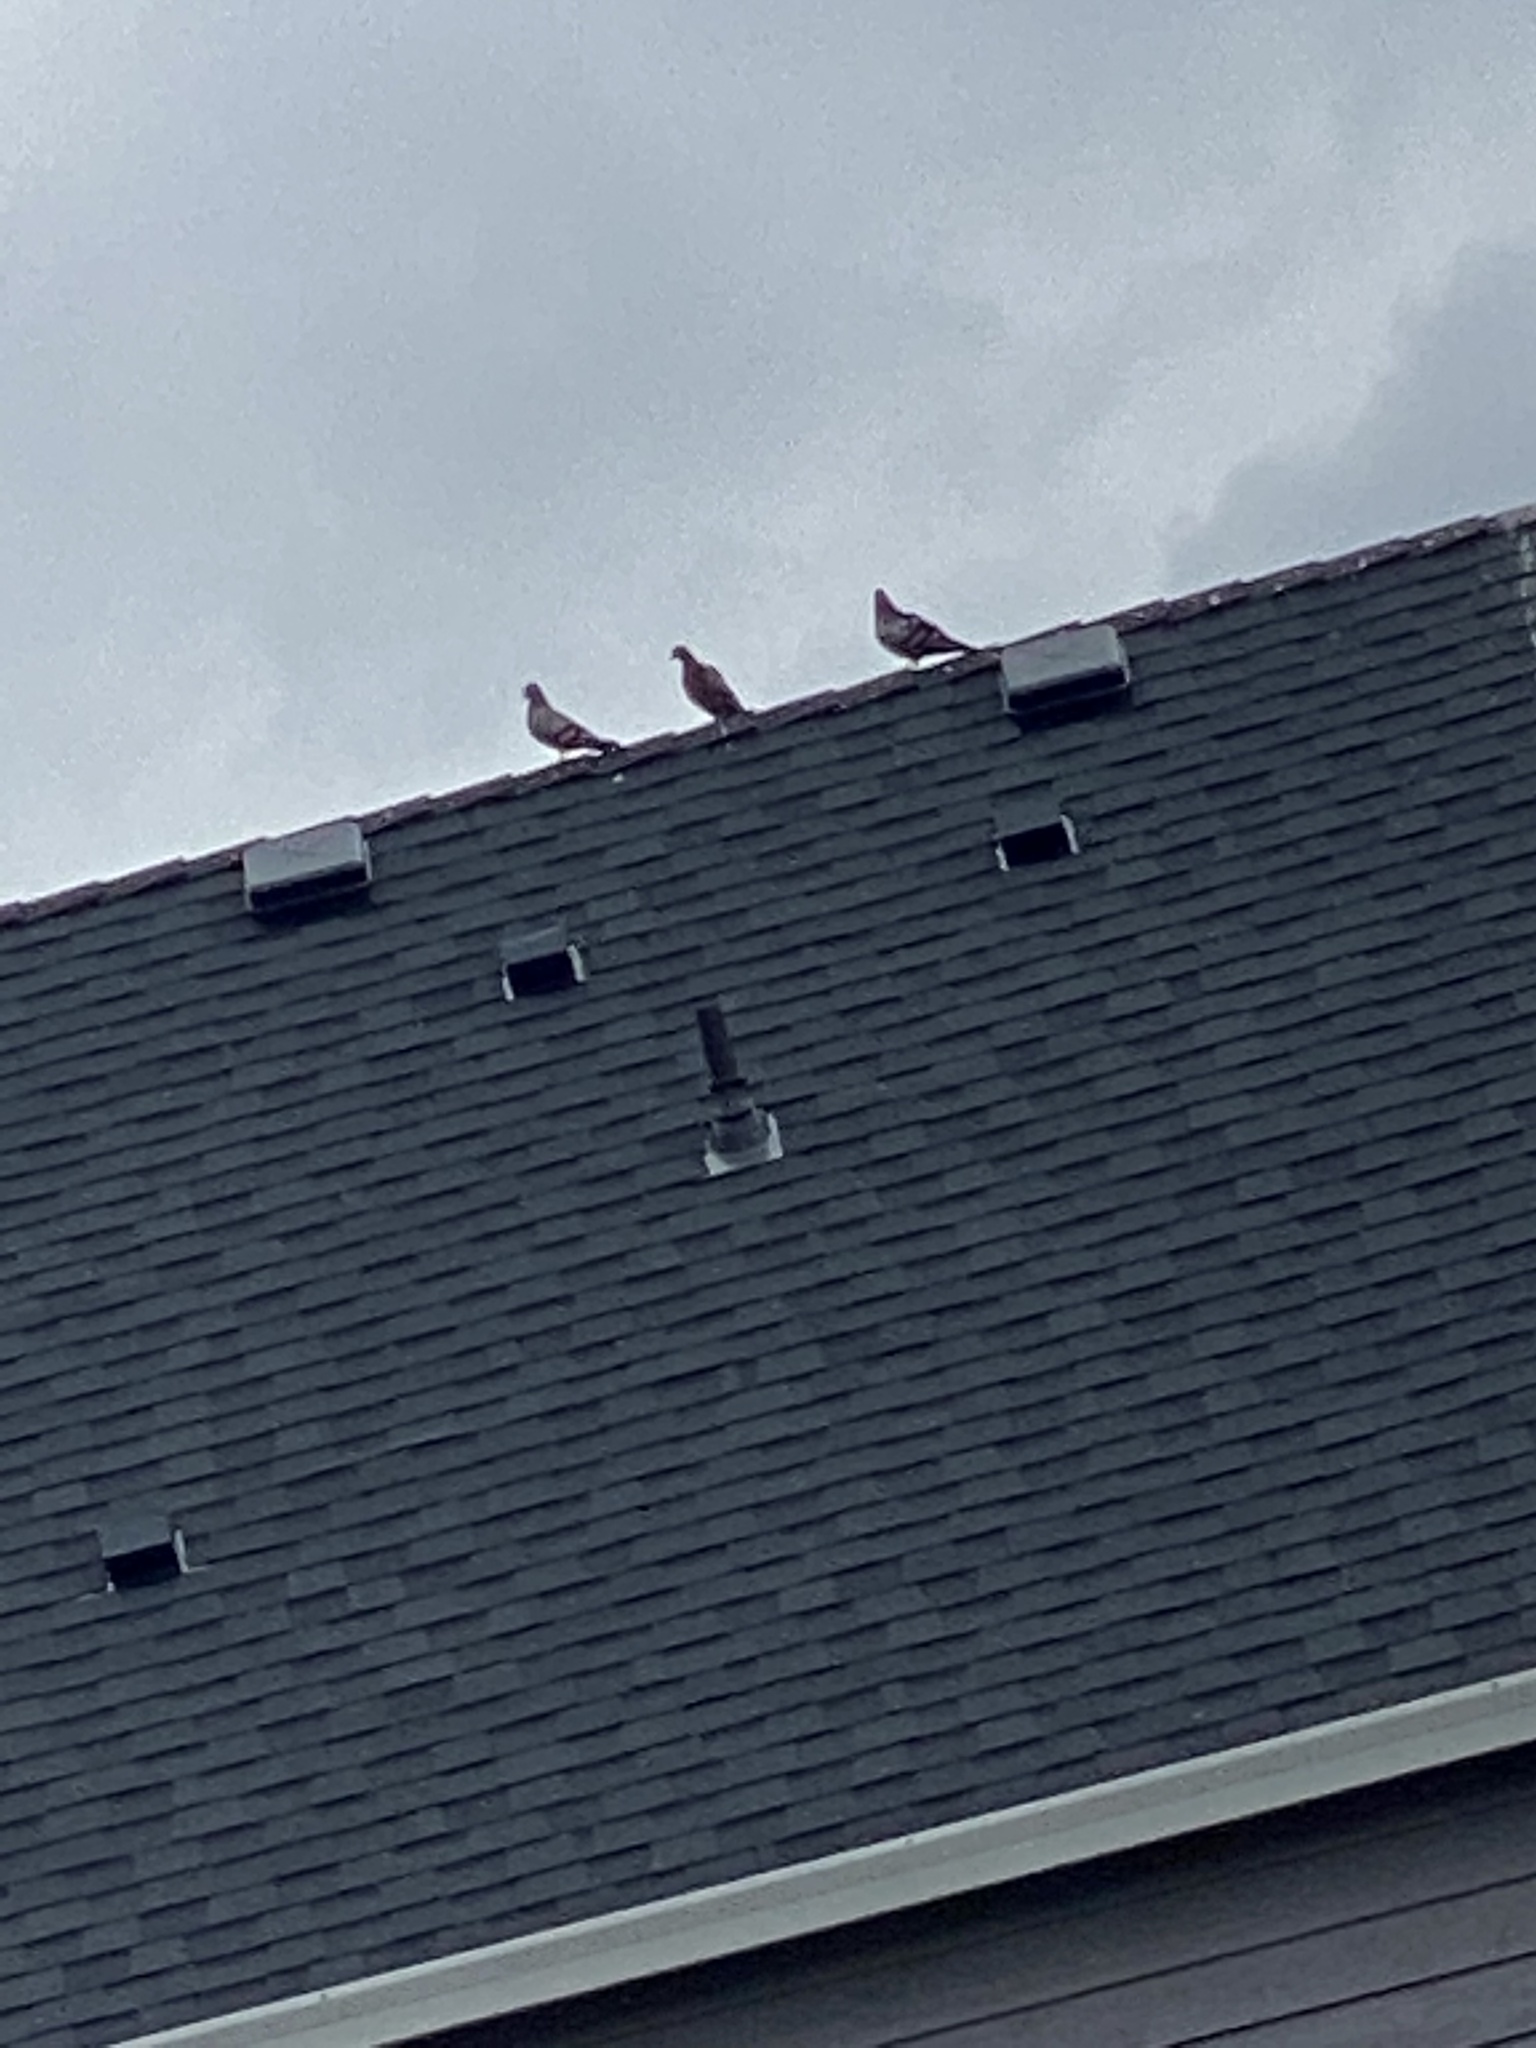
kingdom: Animalia
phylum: Chordata
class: Aves
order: Columbiformes
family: Columbidae
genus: Columba
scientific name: Columba livia
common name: Rock pigeon
